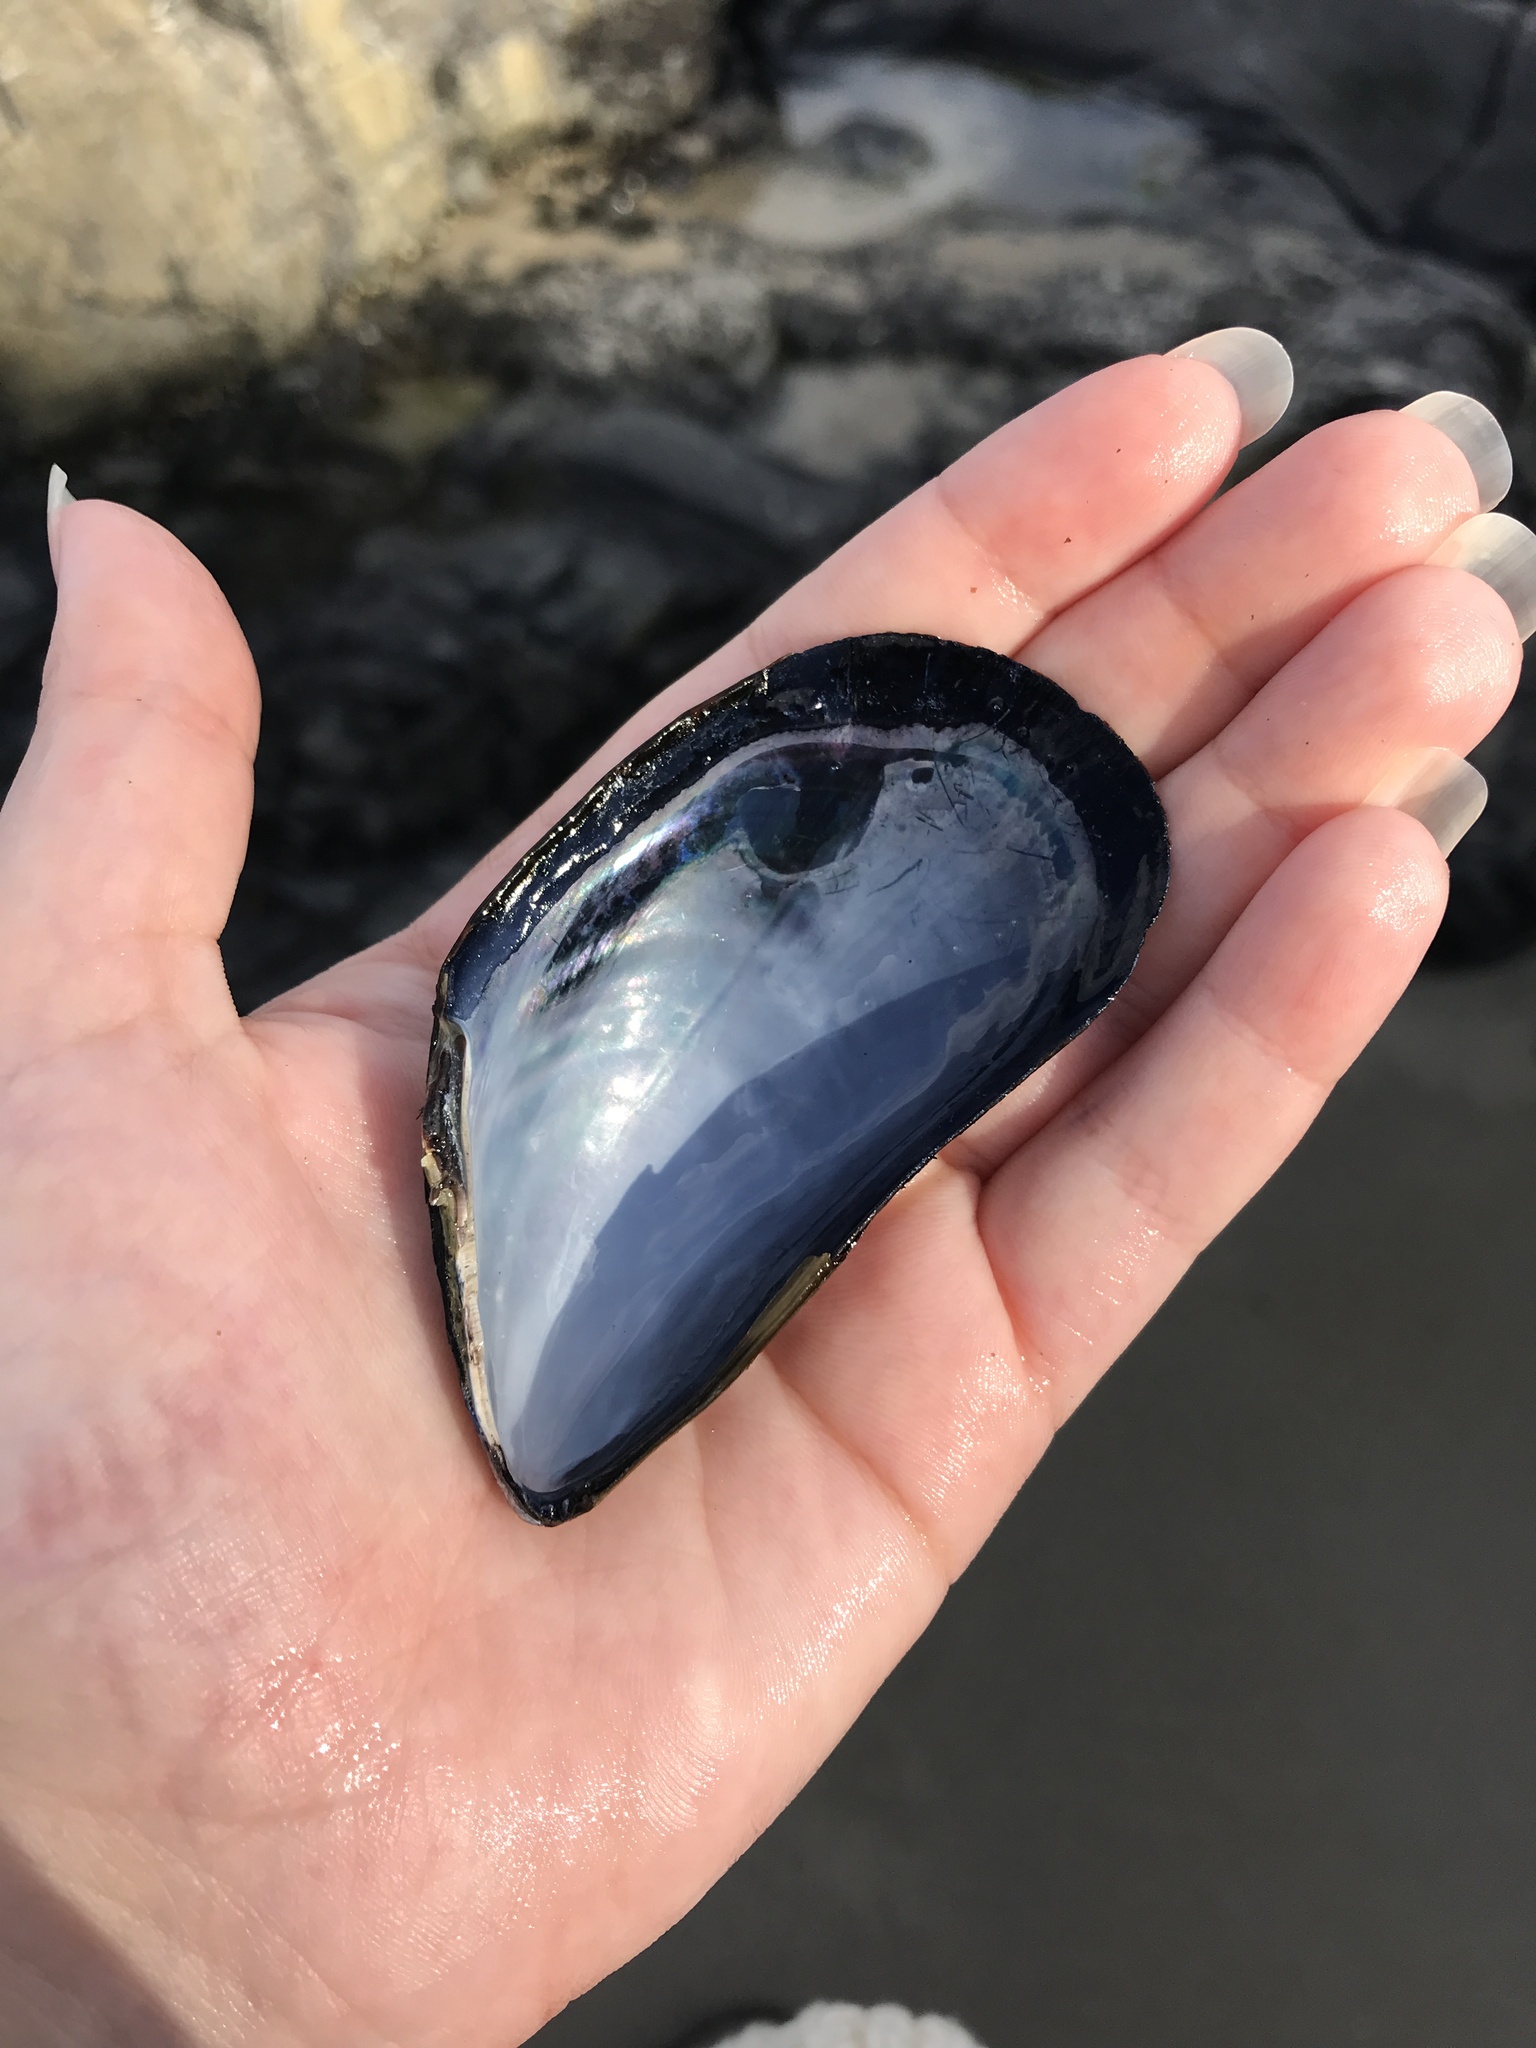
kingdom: Animalia
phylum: Mollusca
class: Bivalvia
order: Mytilida
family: Mytilidae
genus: Mytilus
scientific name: Mytilus edulis
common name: Blue mussel
